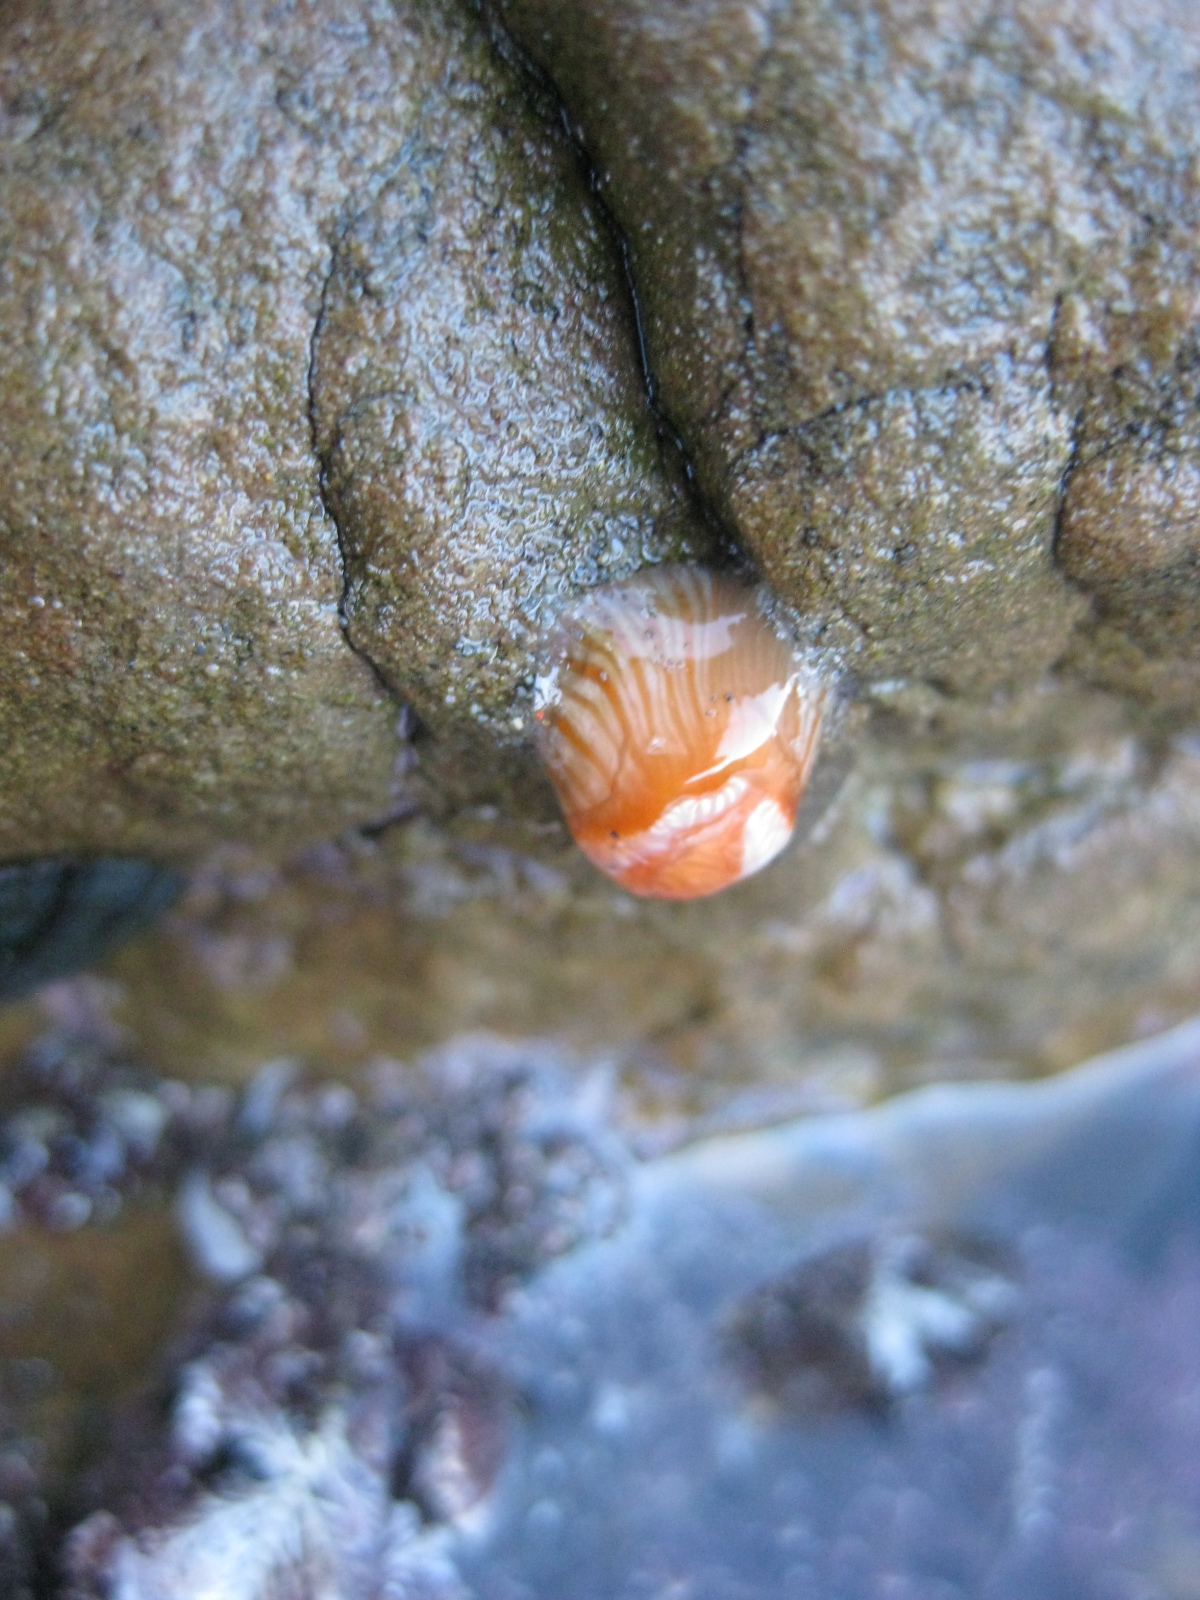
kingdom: Animalia
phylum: Cnidaria
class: Anthozoa
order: Actiniaria
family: Sagartiidae
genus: Anthothoe
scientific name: Anthothoe albocincta
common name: Orange striped anemone
